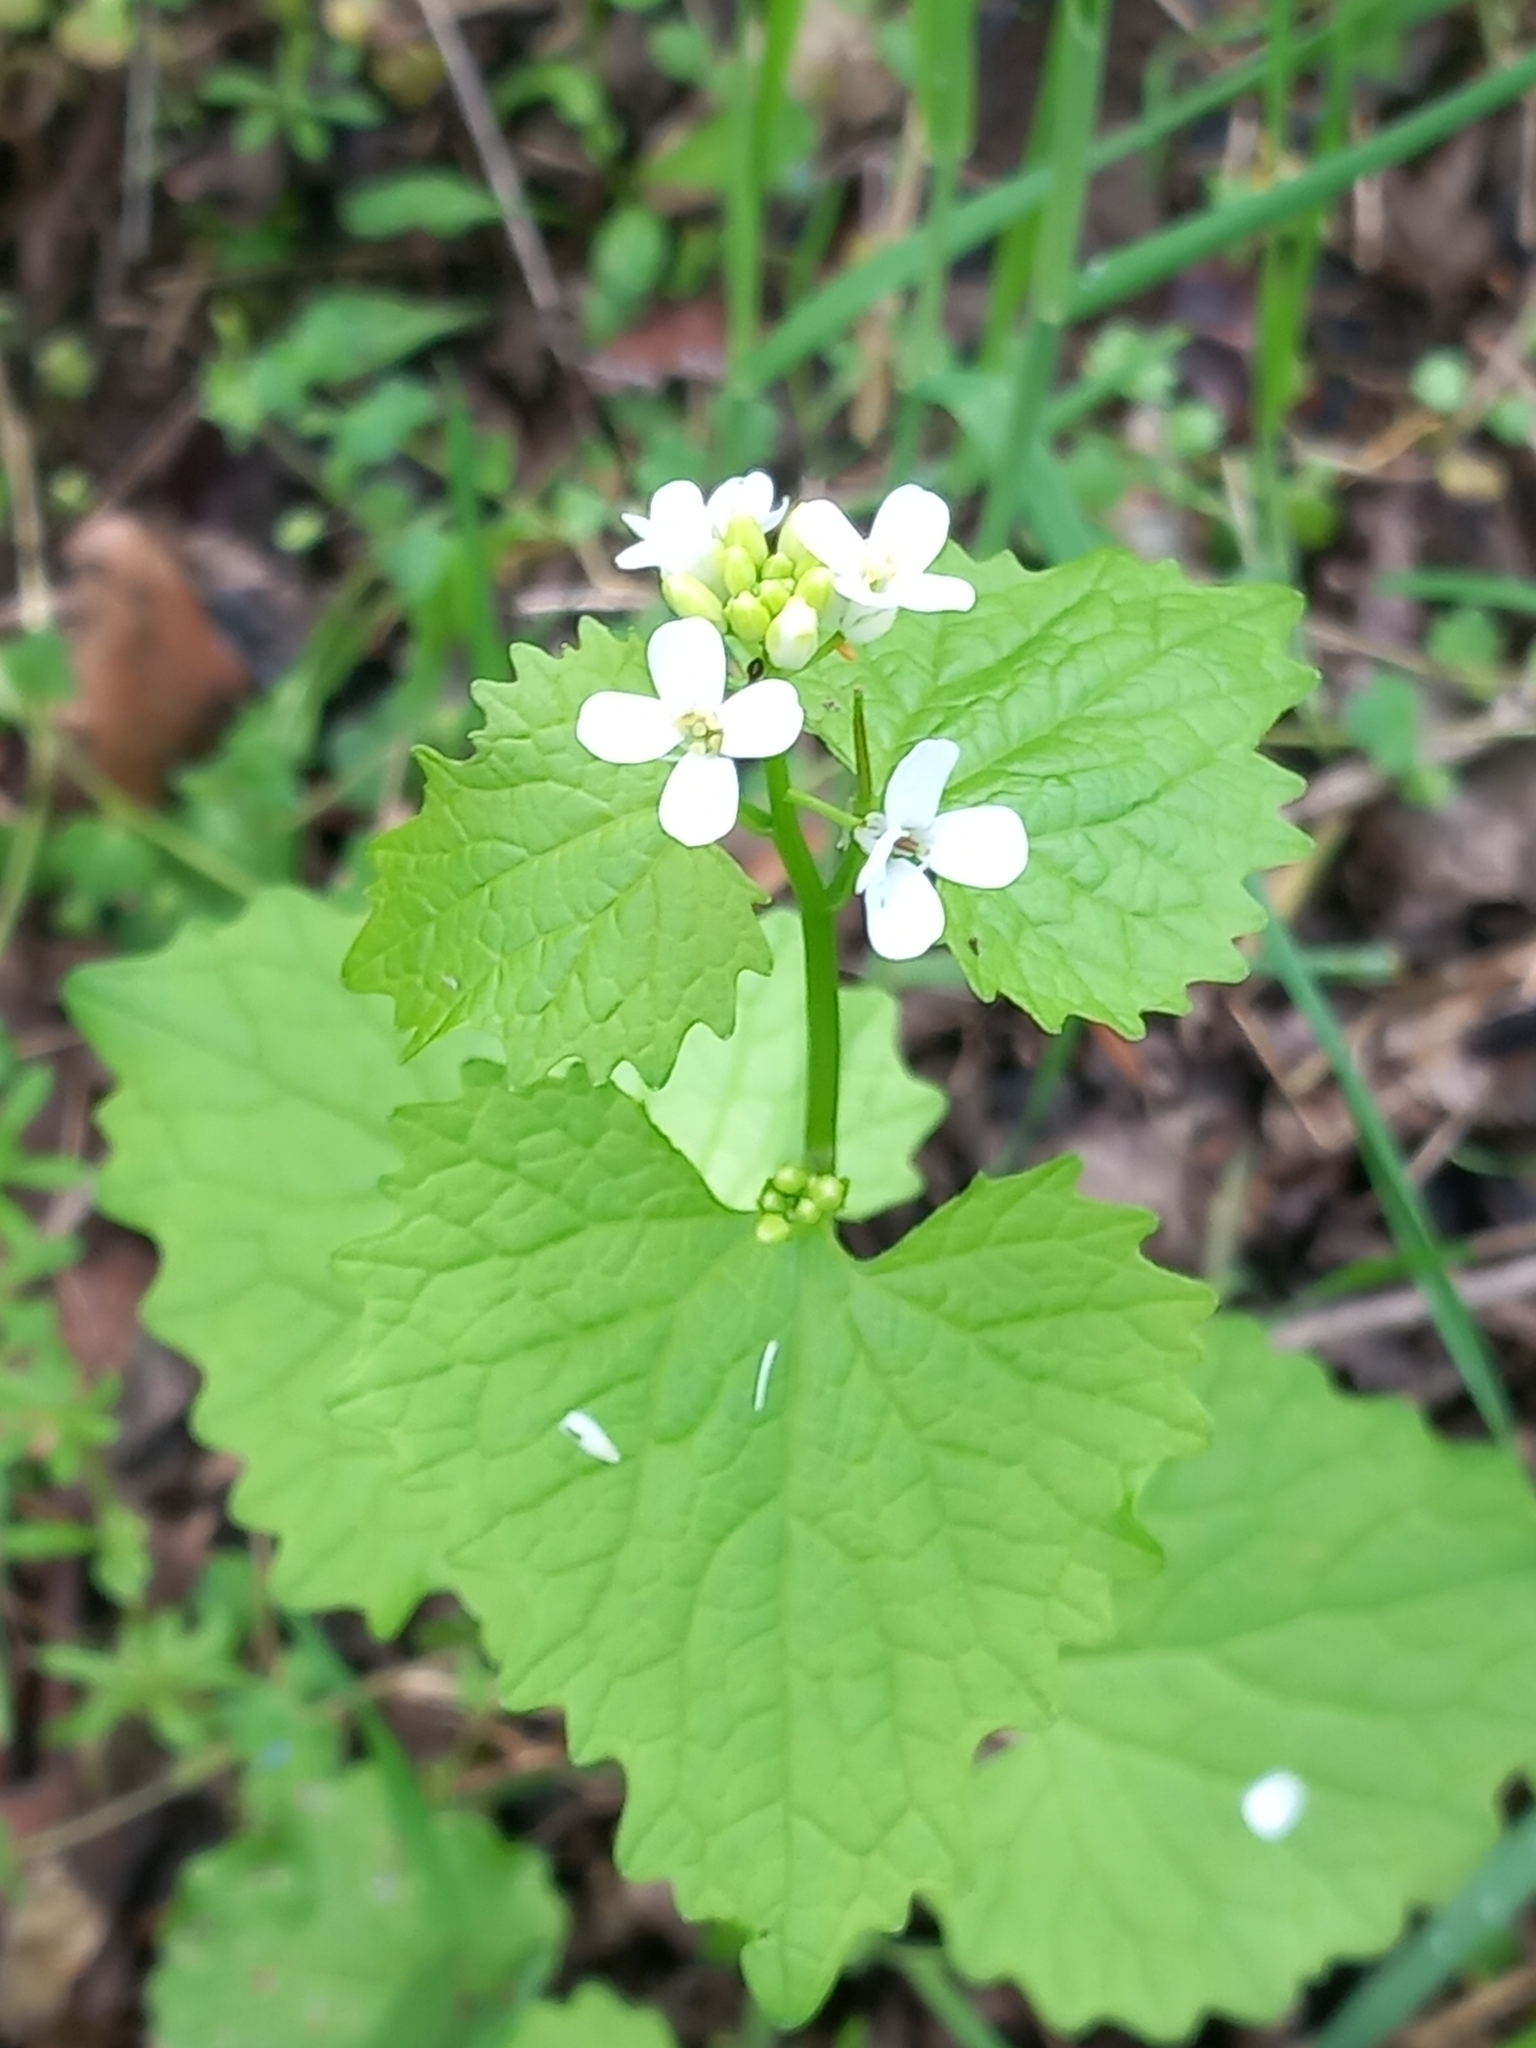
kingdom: Plantae
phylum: Tracheophyta
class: Magnoliopsida
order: Brassicales
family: Brassicaceae
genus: Alliaria
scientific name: Alliaria petiolata
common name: Garlic mustard
